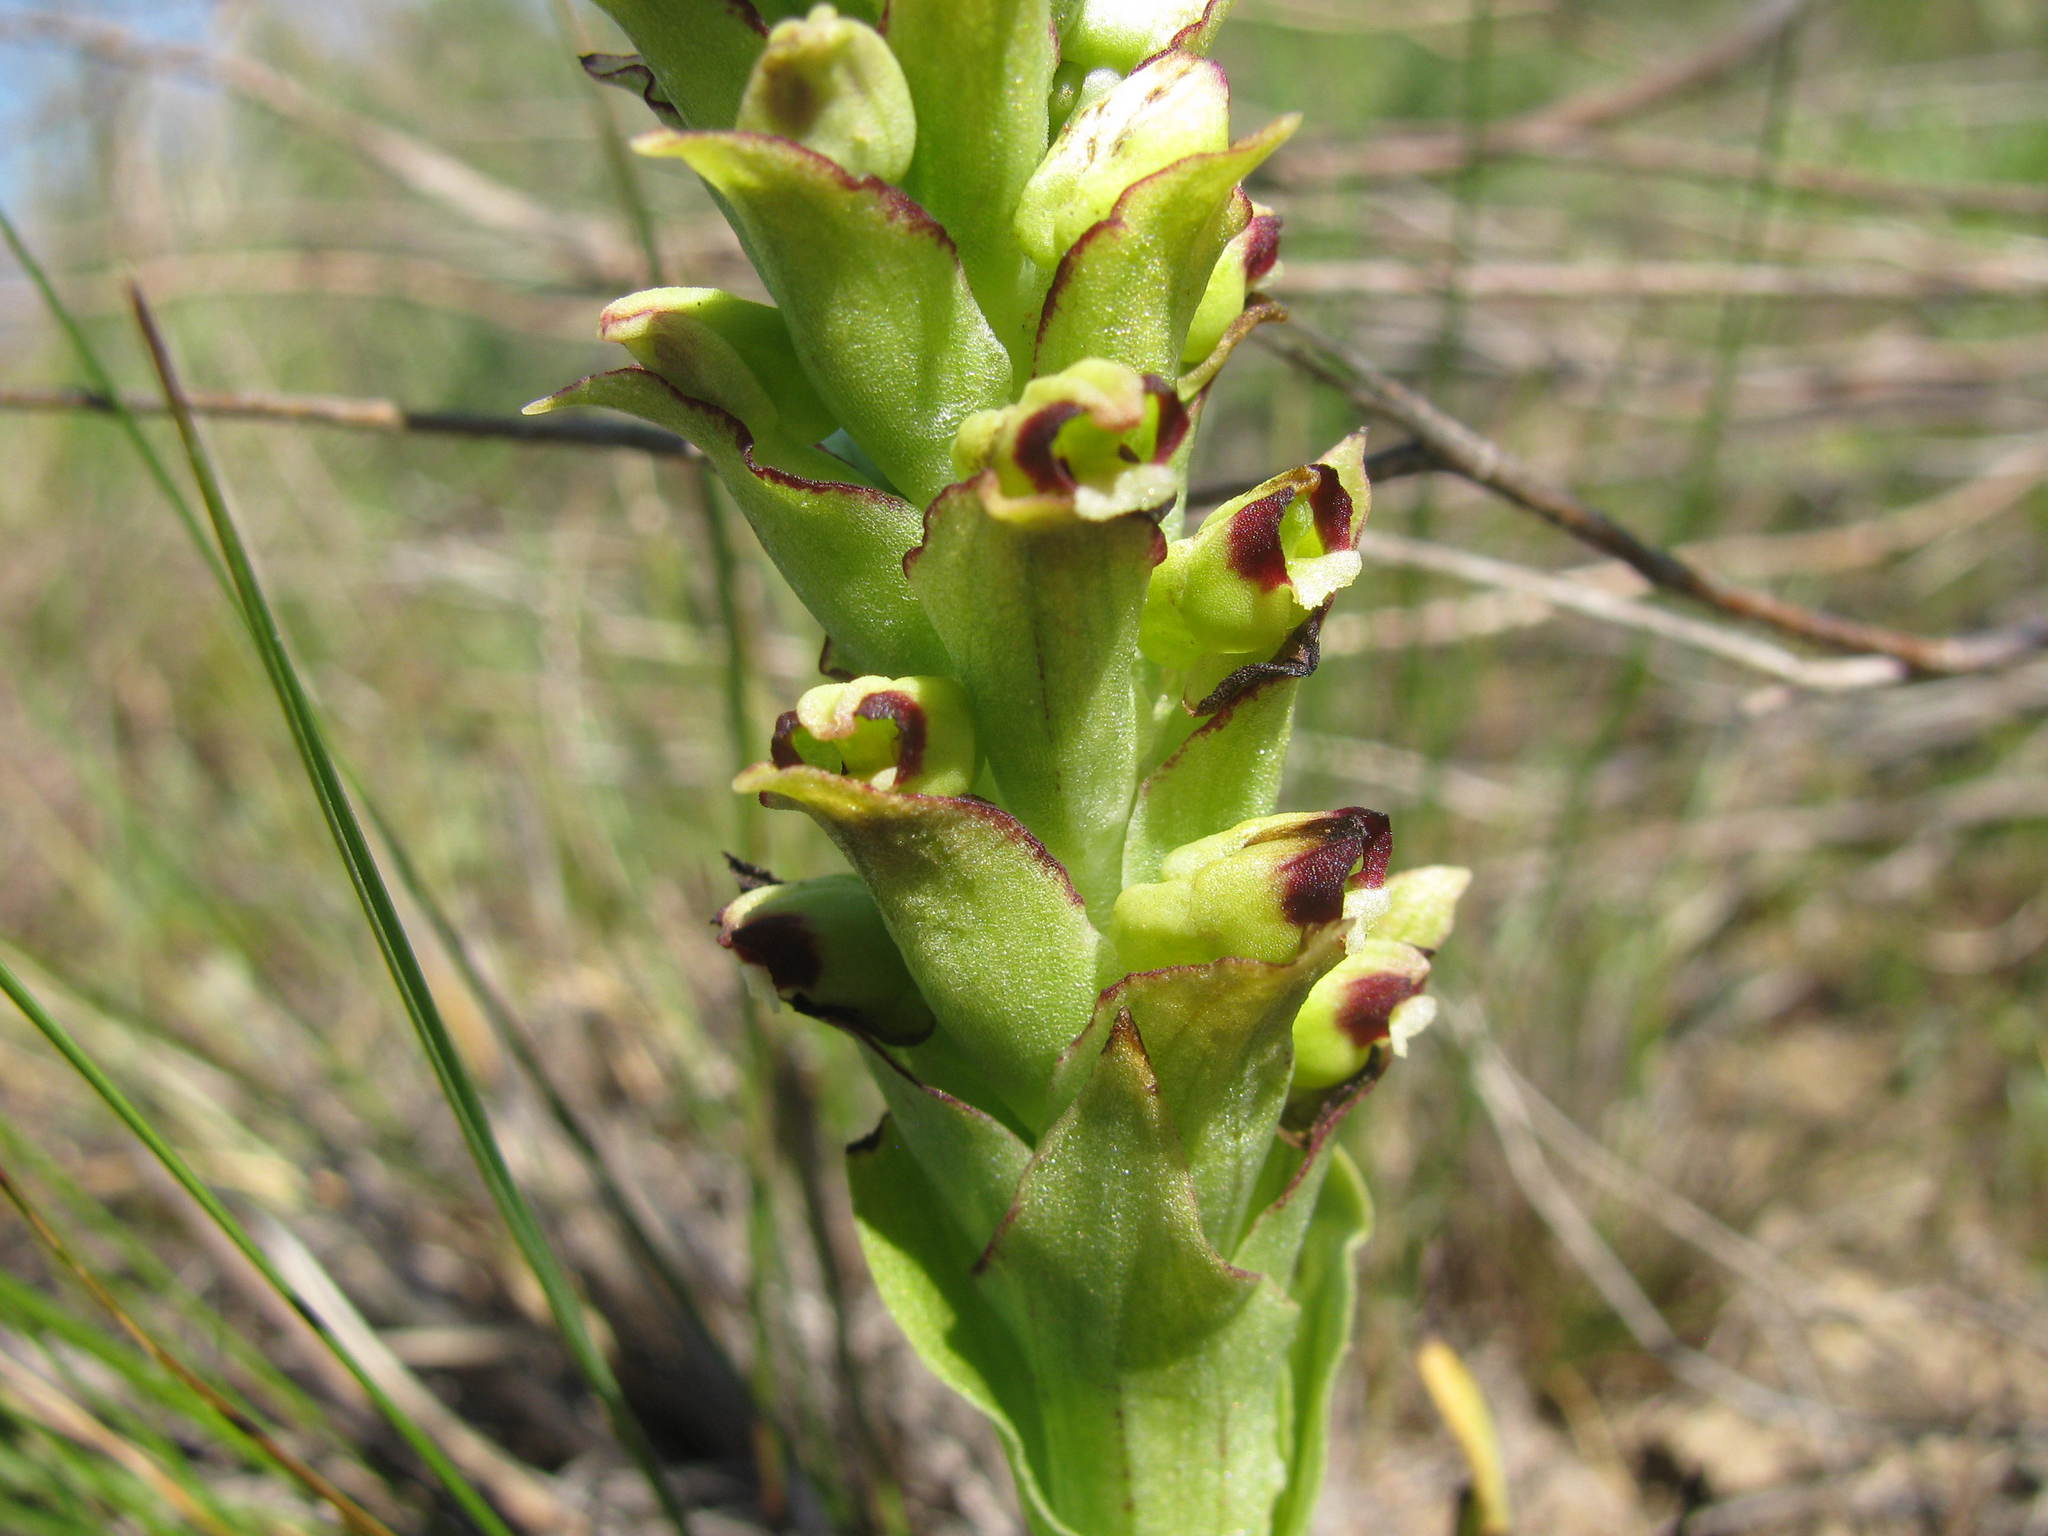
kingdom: Plantae
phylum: Tracheophyta
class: Liliopsida
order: Asparagales
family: Orchidaceae
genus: Corycium
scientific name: Corycium orobanchoides
